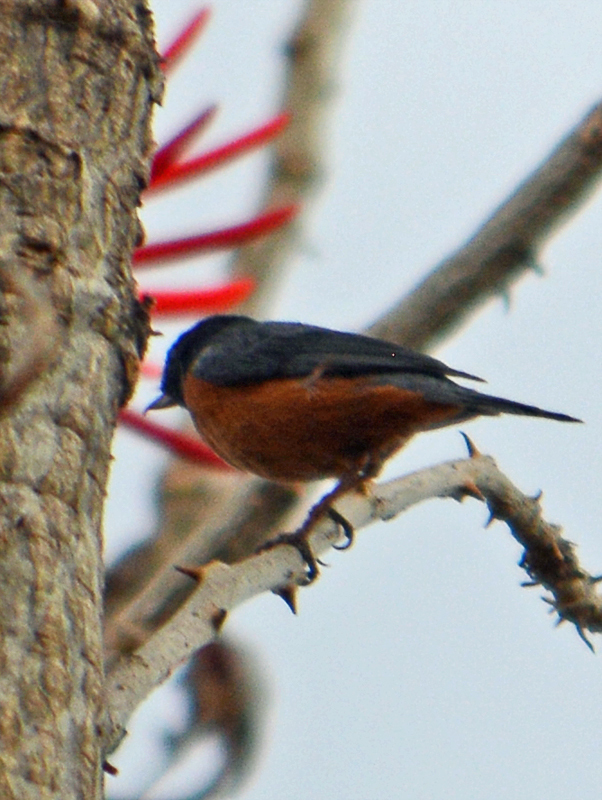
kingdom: Animalia
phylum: Chordata
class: Aves
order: Passeriformes
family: Thraupidae
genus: Diglossa
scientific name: Diglossa baritula
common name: Cinnamon-bellied flowerpiercer
